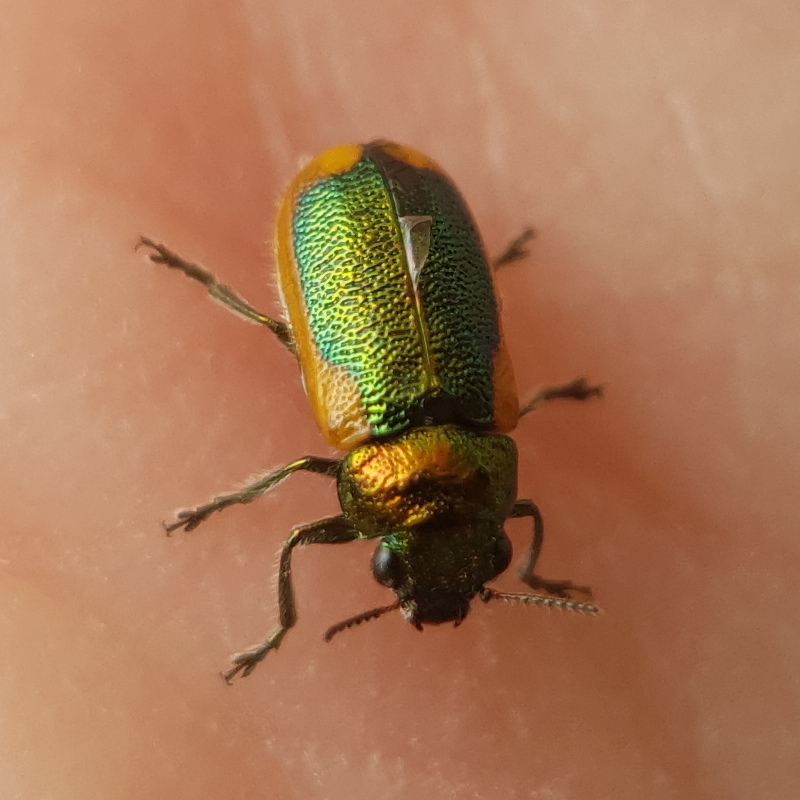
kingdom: Animalia
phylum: Arthropoda
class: Insecta
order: Coleoptera
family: Chrysomelidae
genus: Smaragdina
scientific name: Smaragdina limbata
